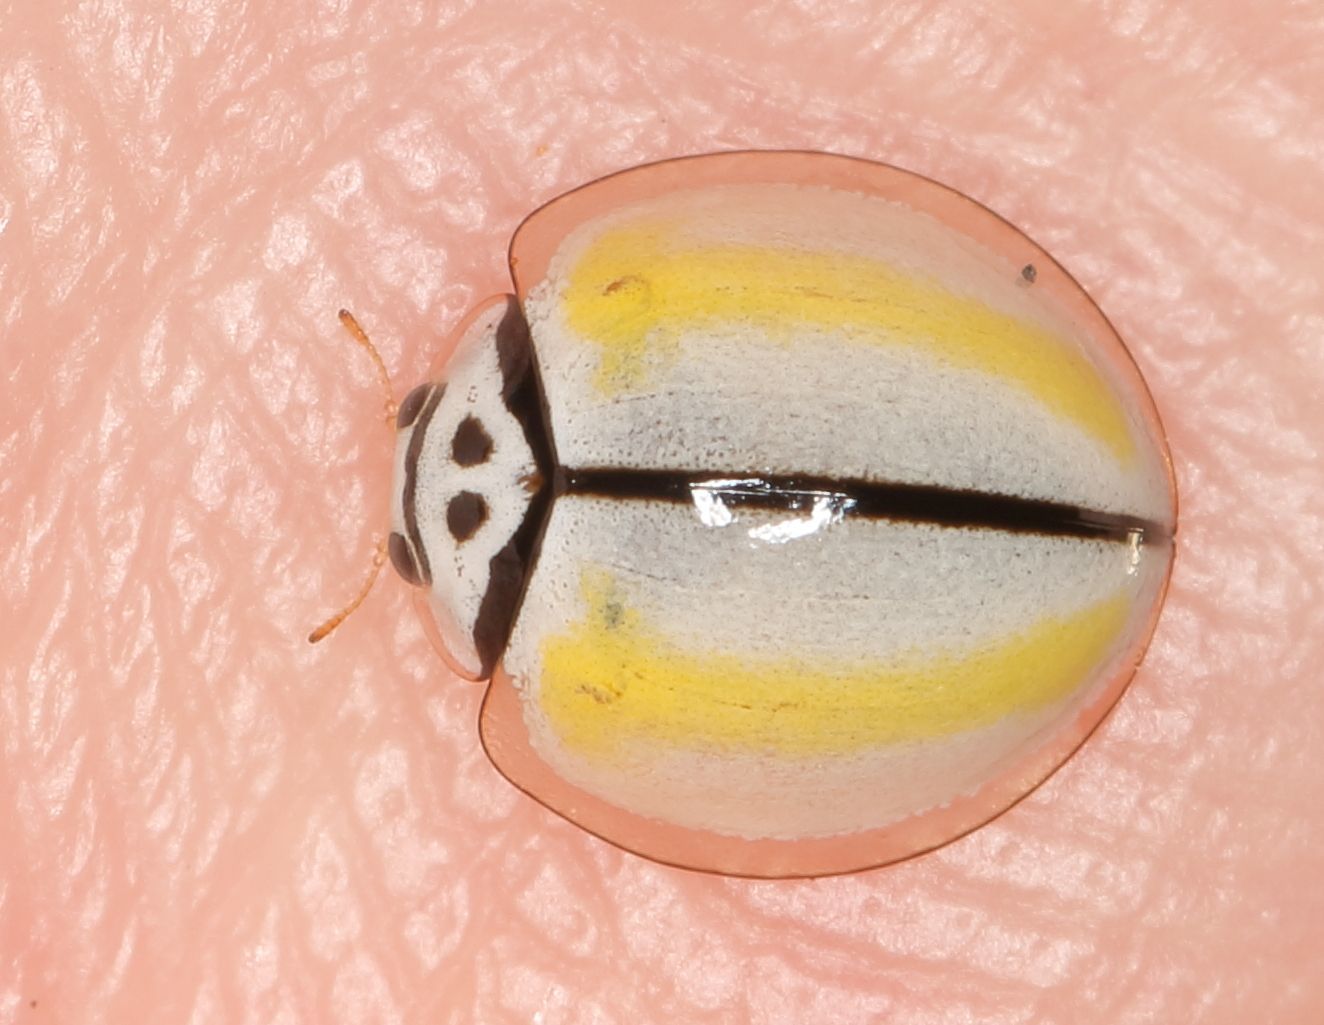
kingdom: Animalia
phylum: Arthropoda
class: Insecta
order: Coleoptera
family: Coccinellidae
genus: Oenopia
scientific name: Oenopia
